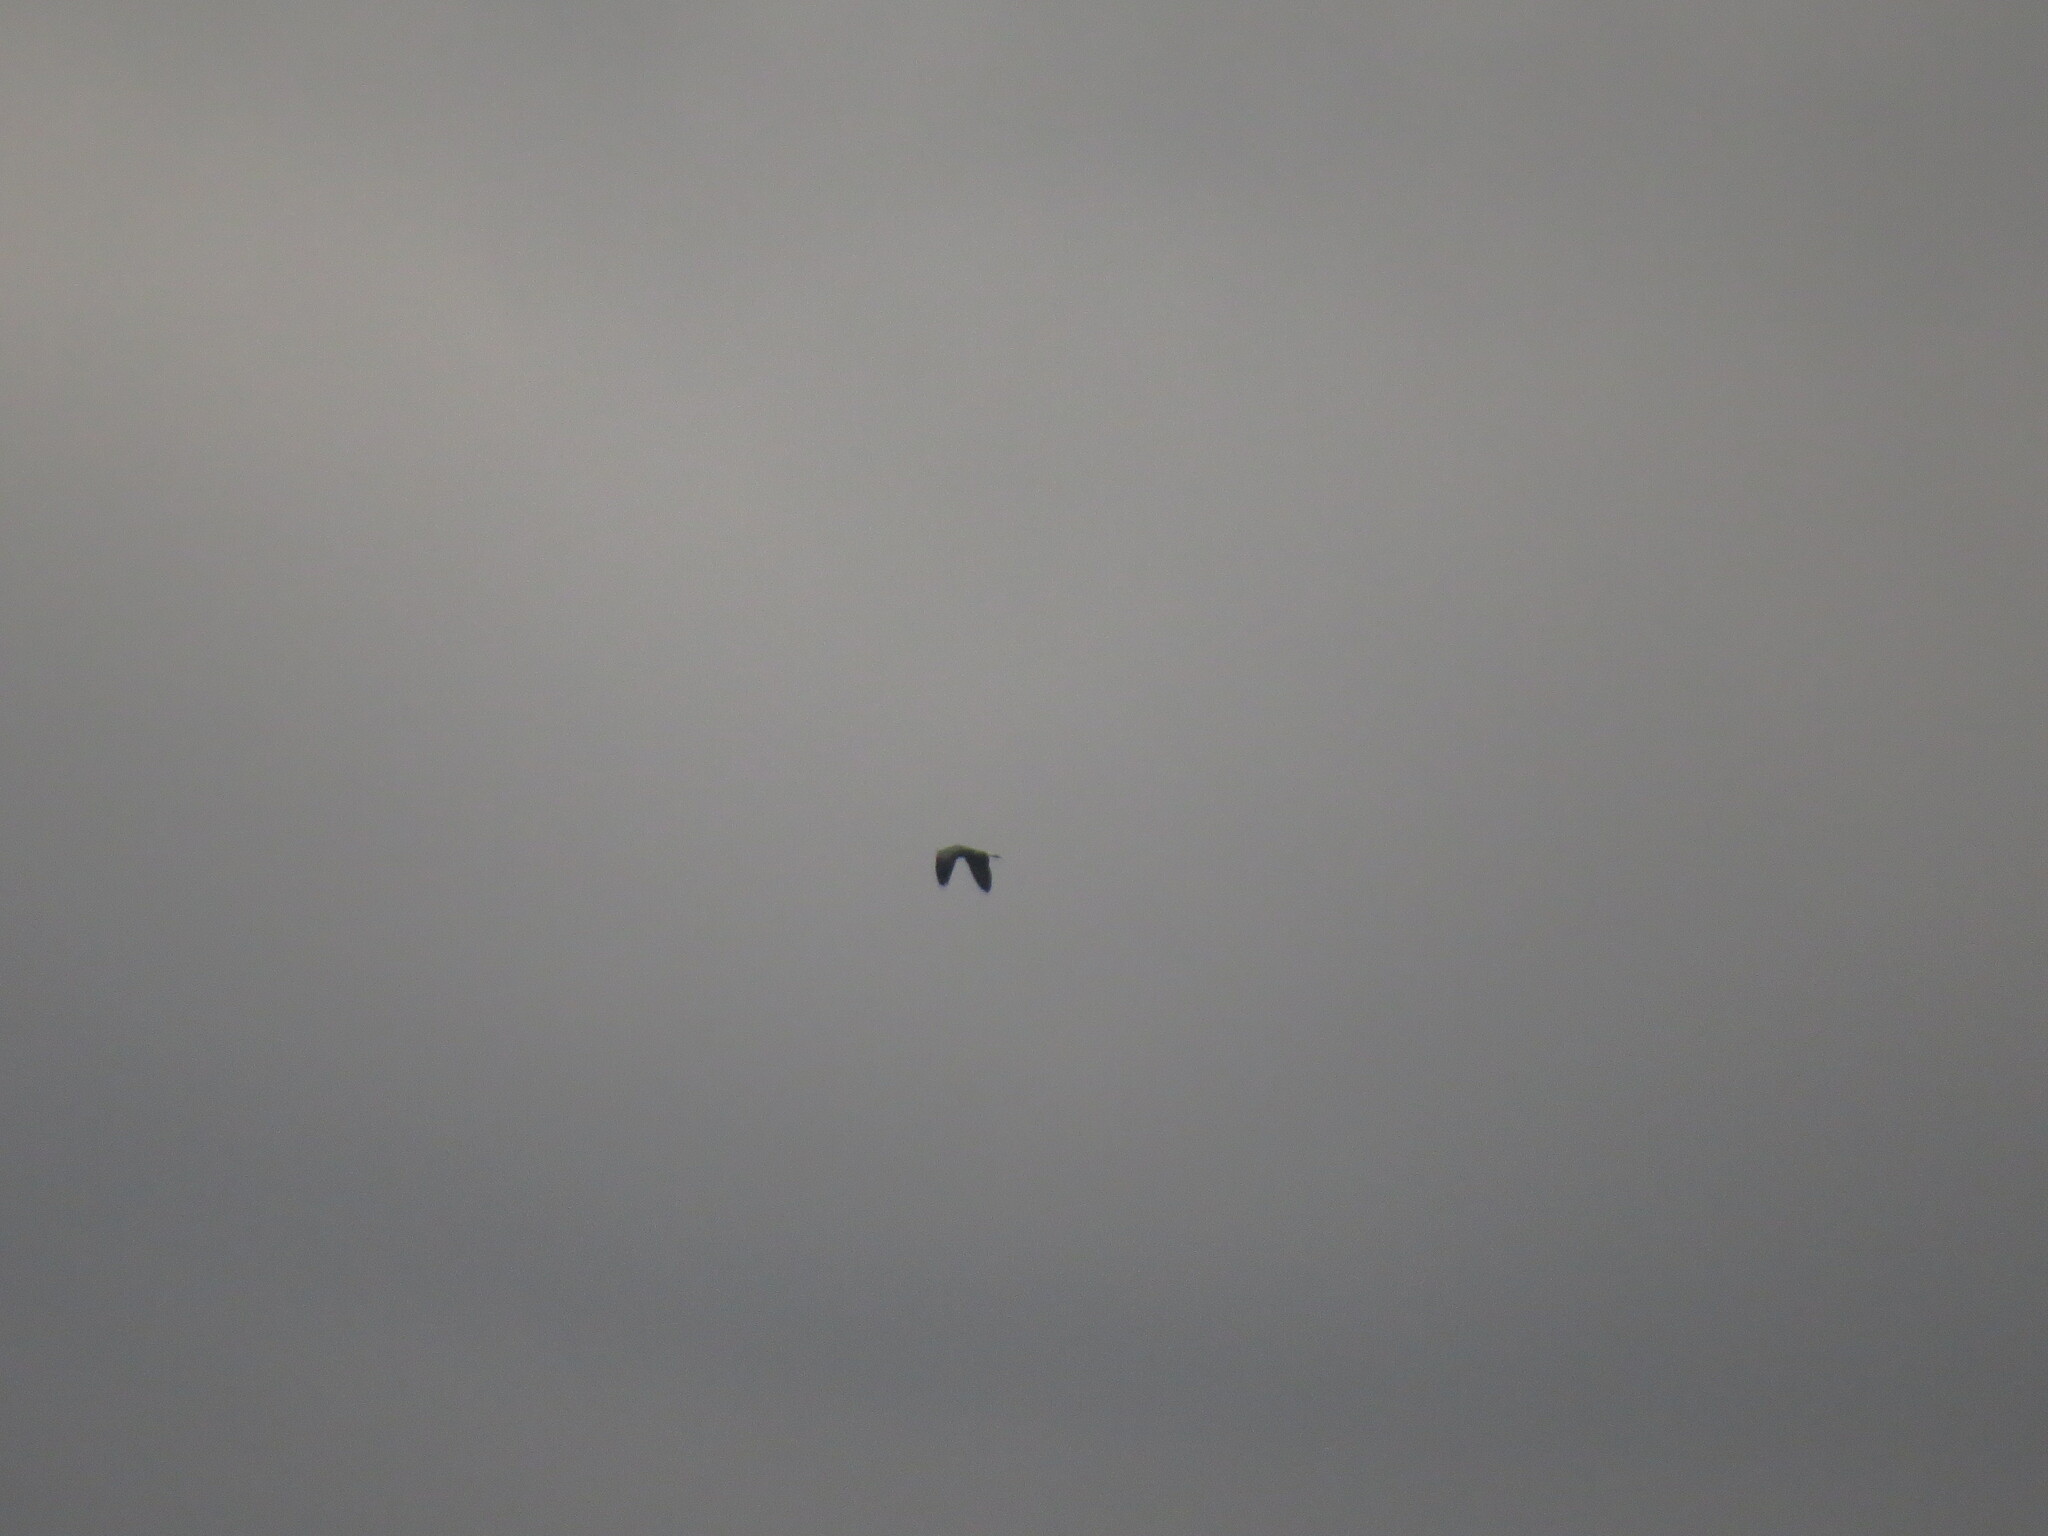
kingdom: Animalia
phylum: Chordata
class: Aves
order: Pelecaniformes
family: Ardeidae
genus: Ardea
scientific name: Ardea cinerea
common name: Grey heron
